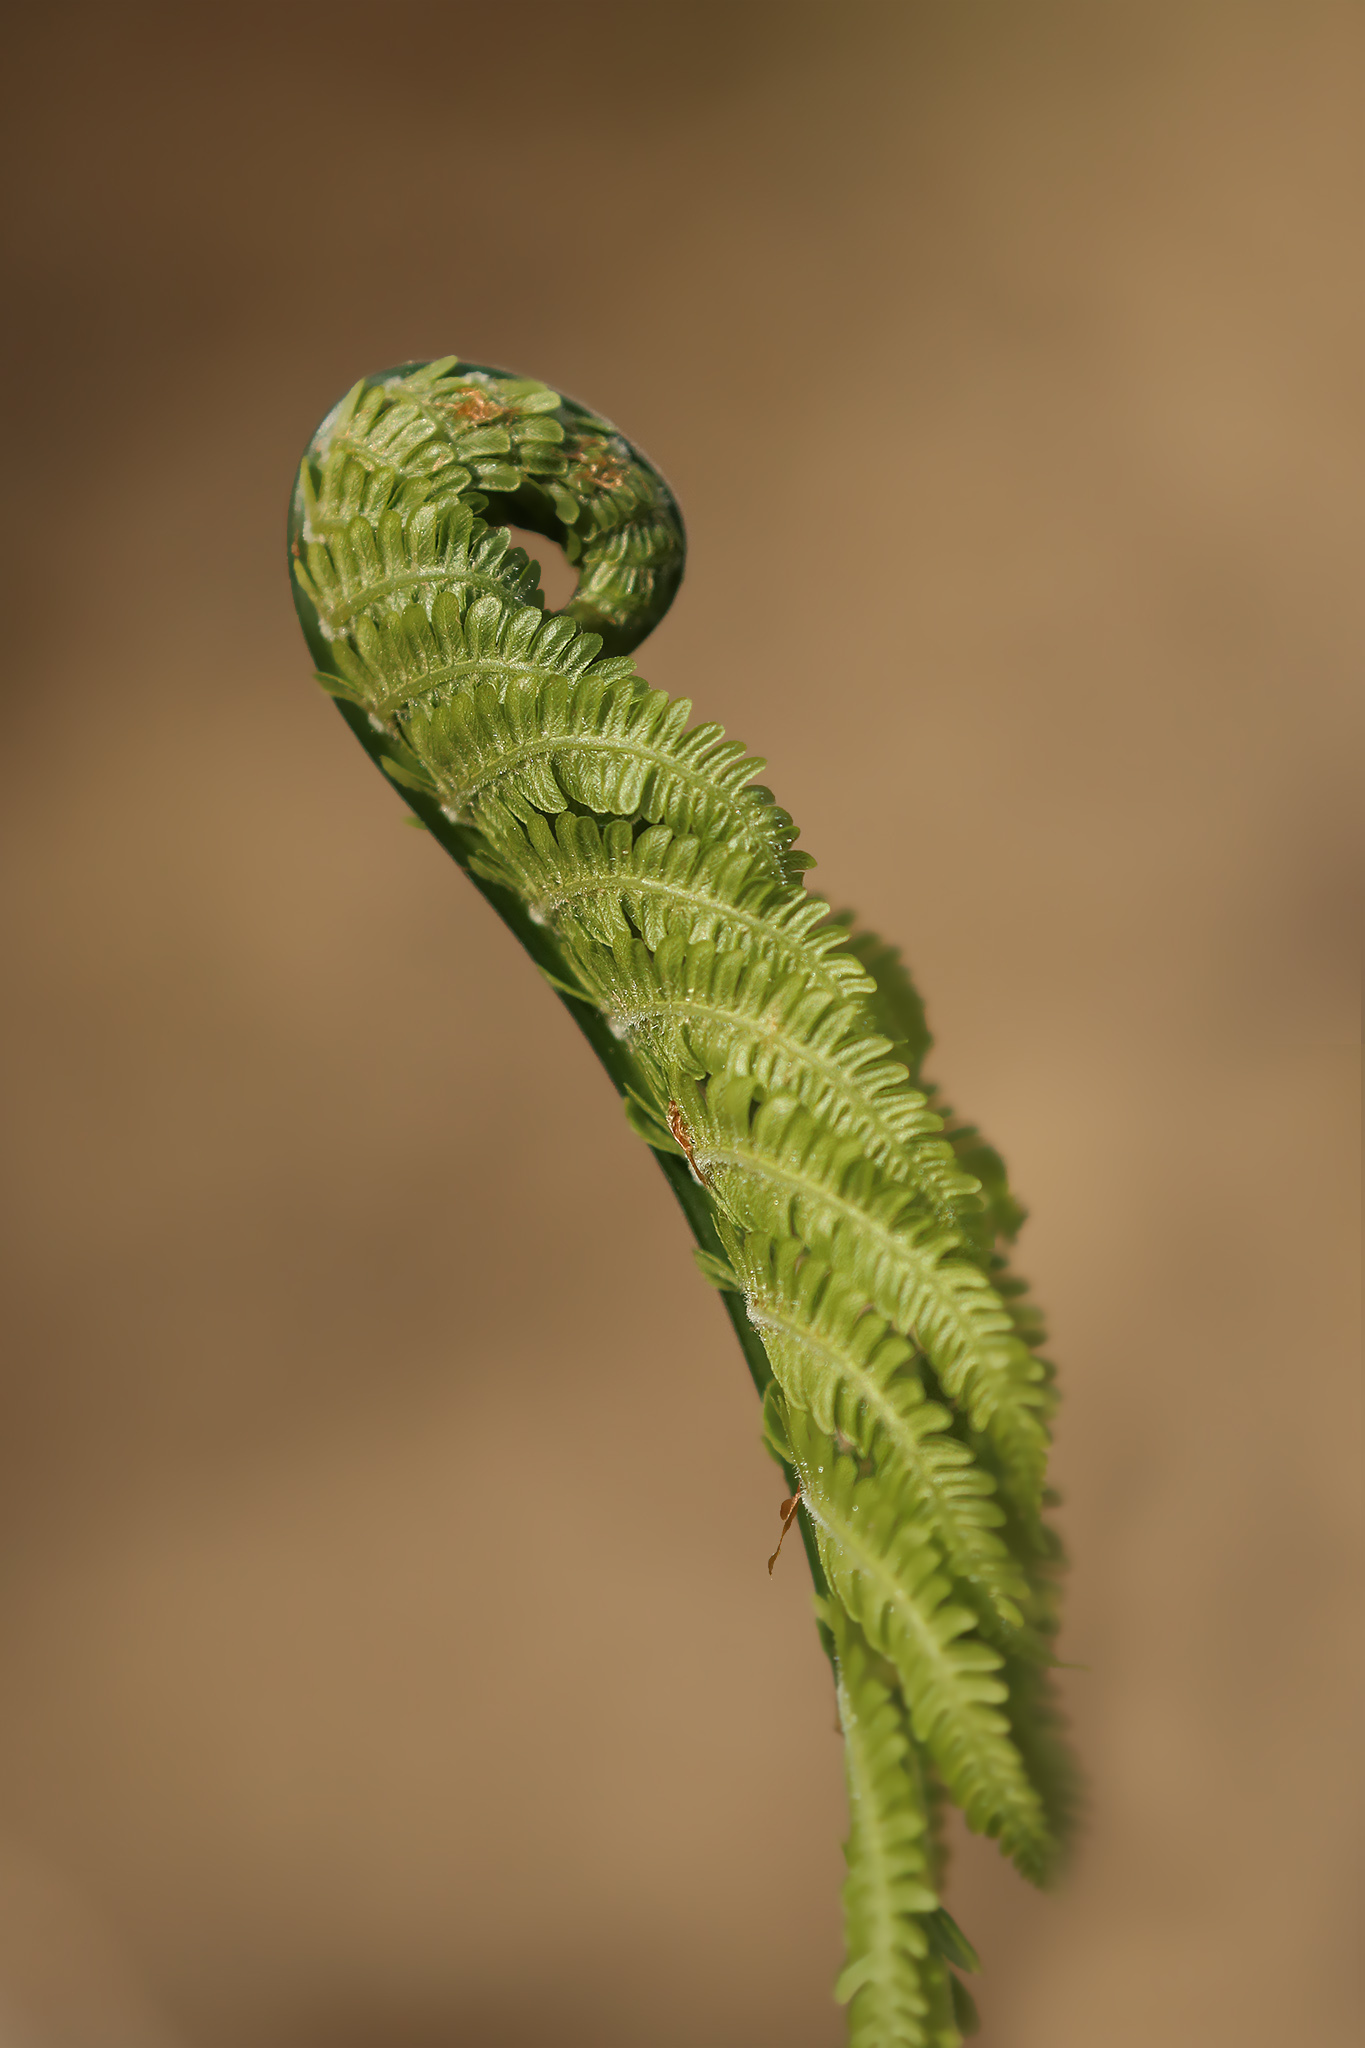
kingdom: Plantae
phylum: Tracheophyta
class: Polypodiopsida
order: Polypodiales
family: Onocleaceae
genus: Matteuccia
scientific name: Matteuccia struthiopteris
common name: Ostrich fern
